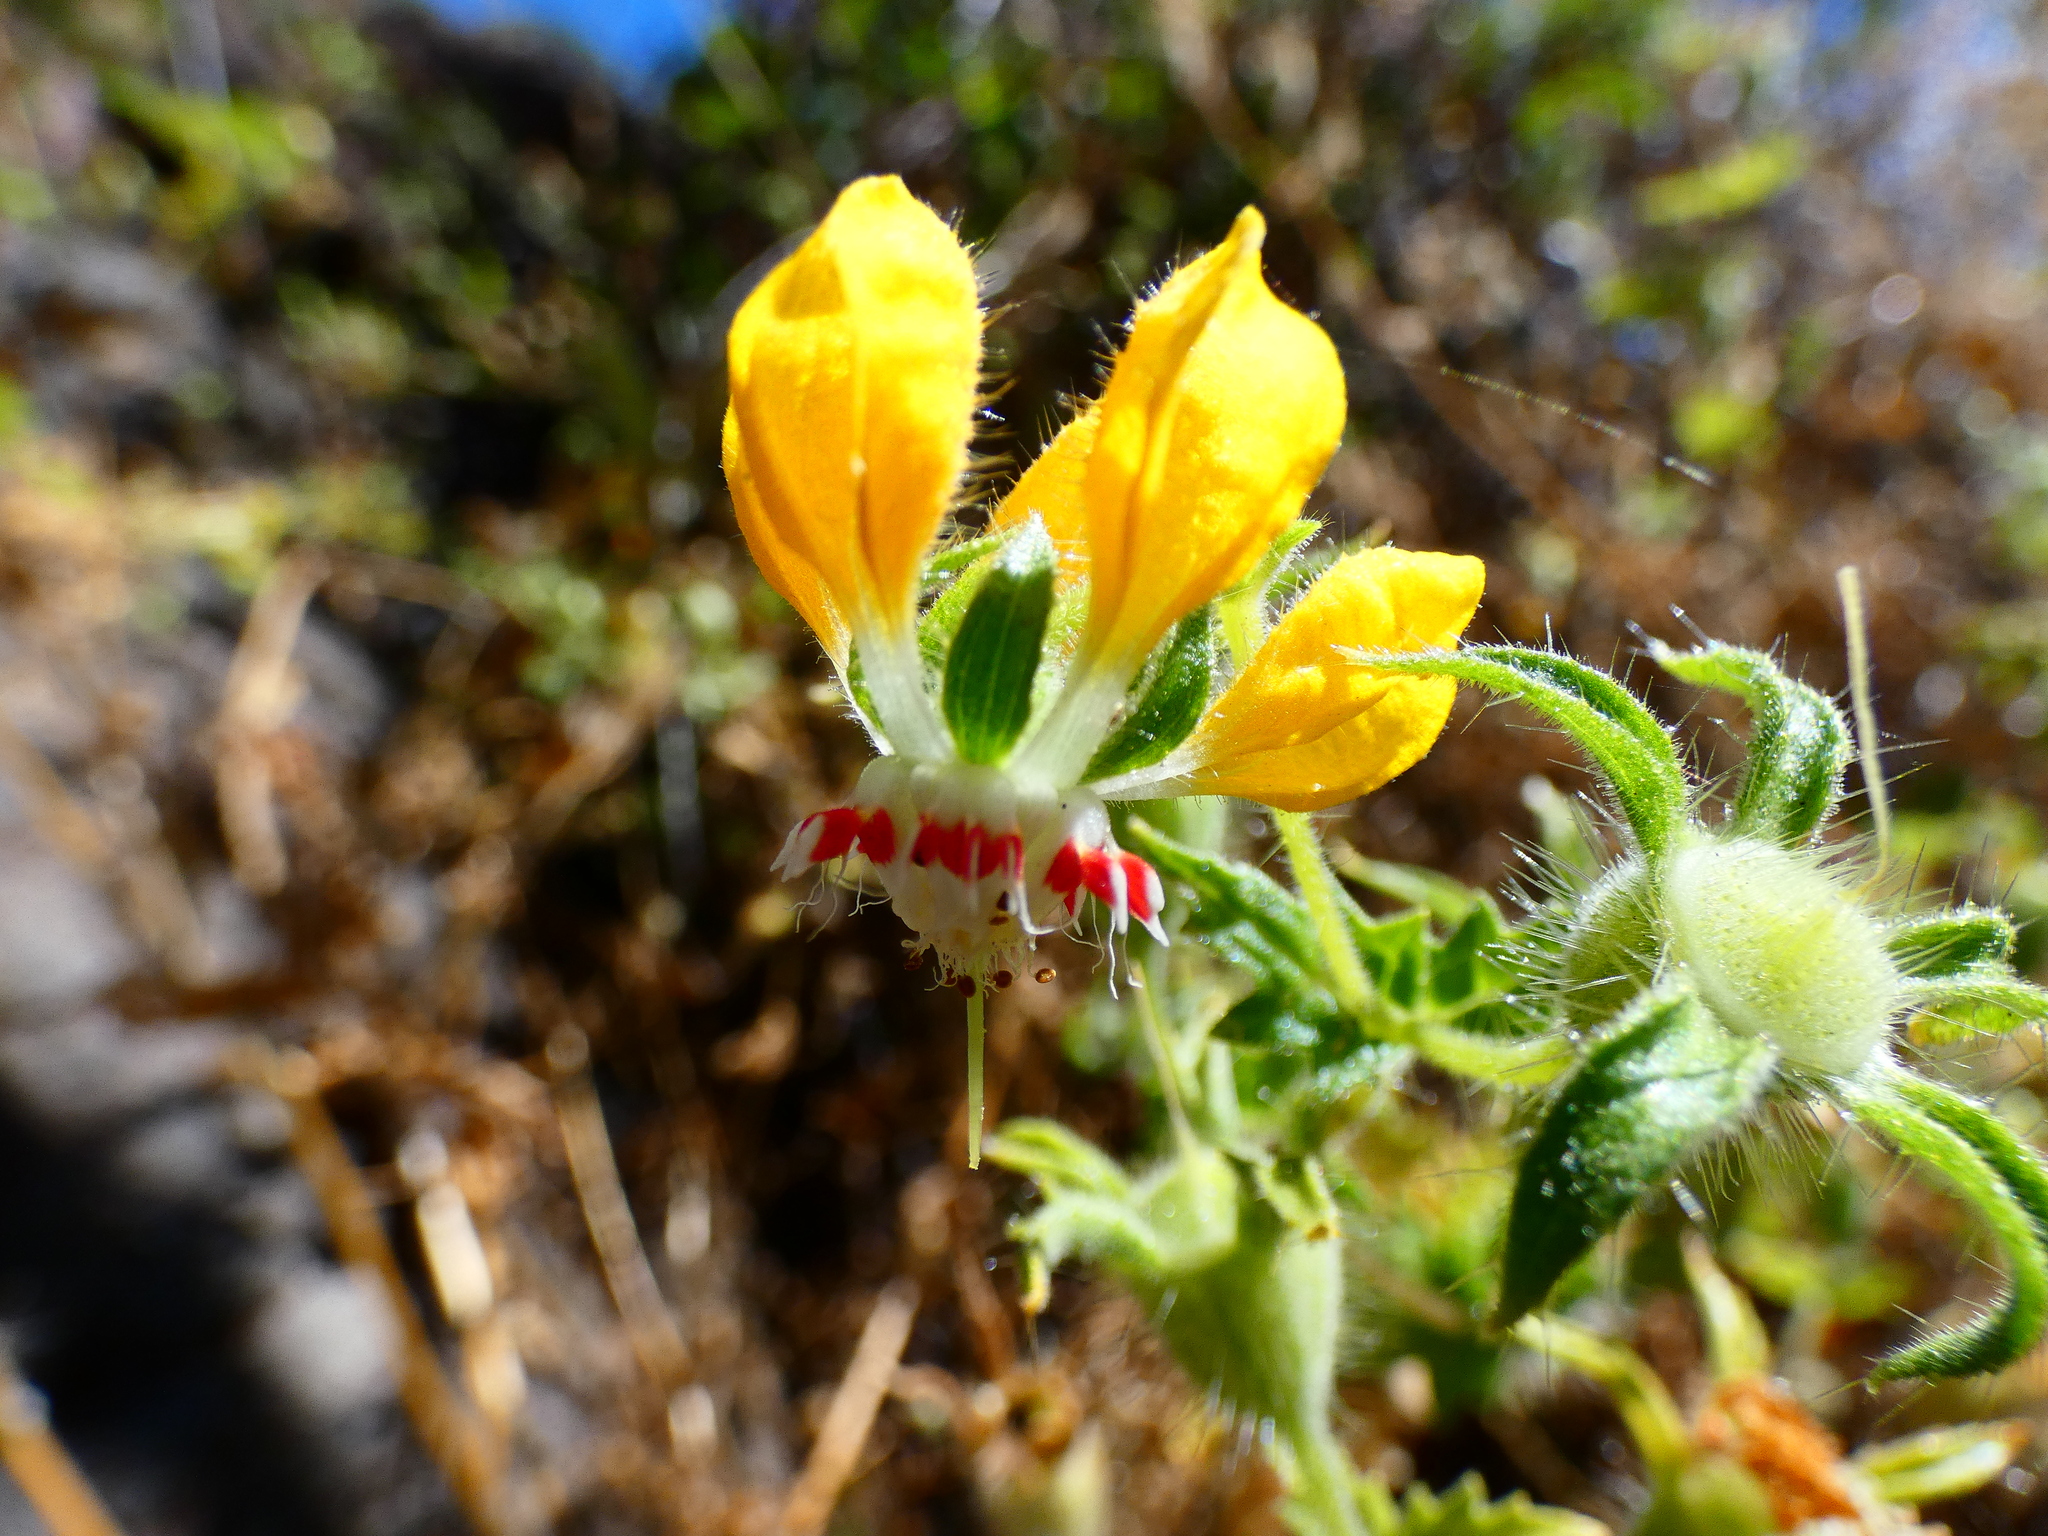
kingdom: Plantae
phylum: Tracheophyta
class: Magnoliopsida
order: Cornales
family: Loasaceae
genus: Loasa
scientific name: Loasa placei
